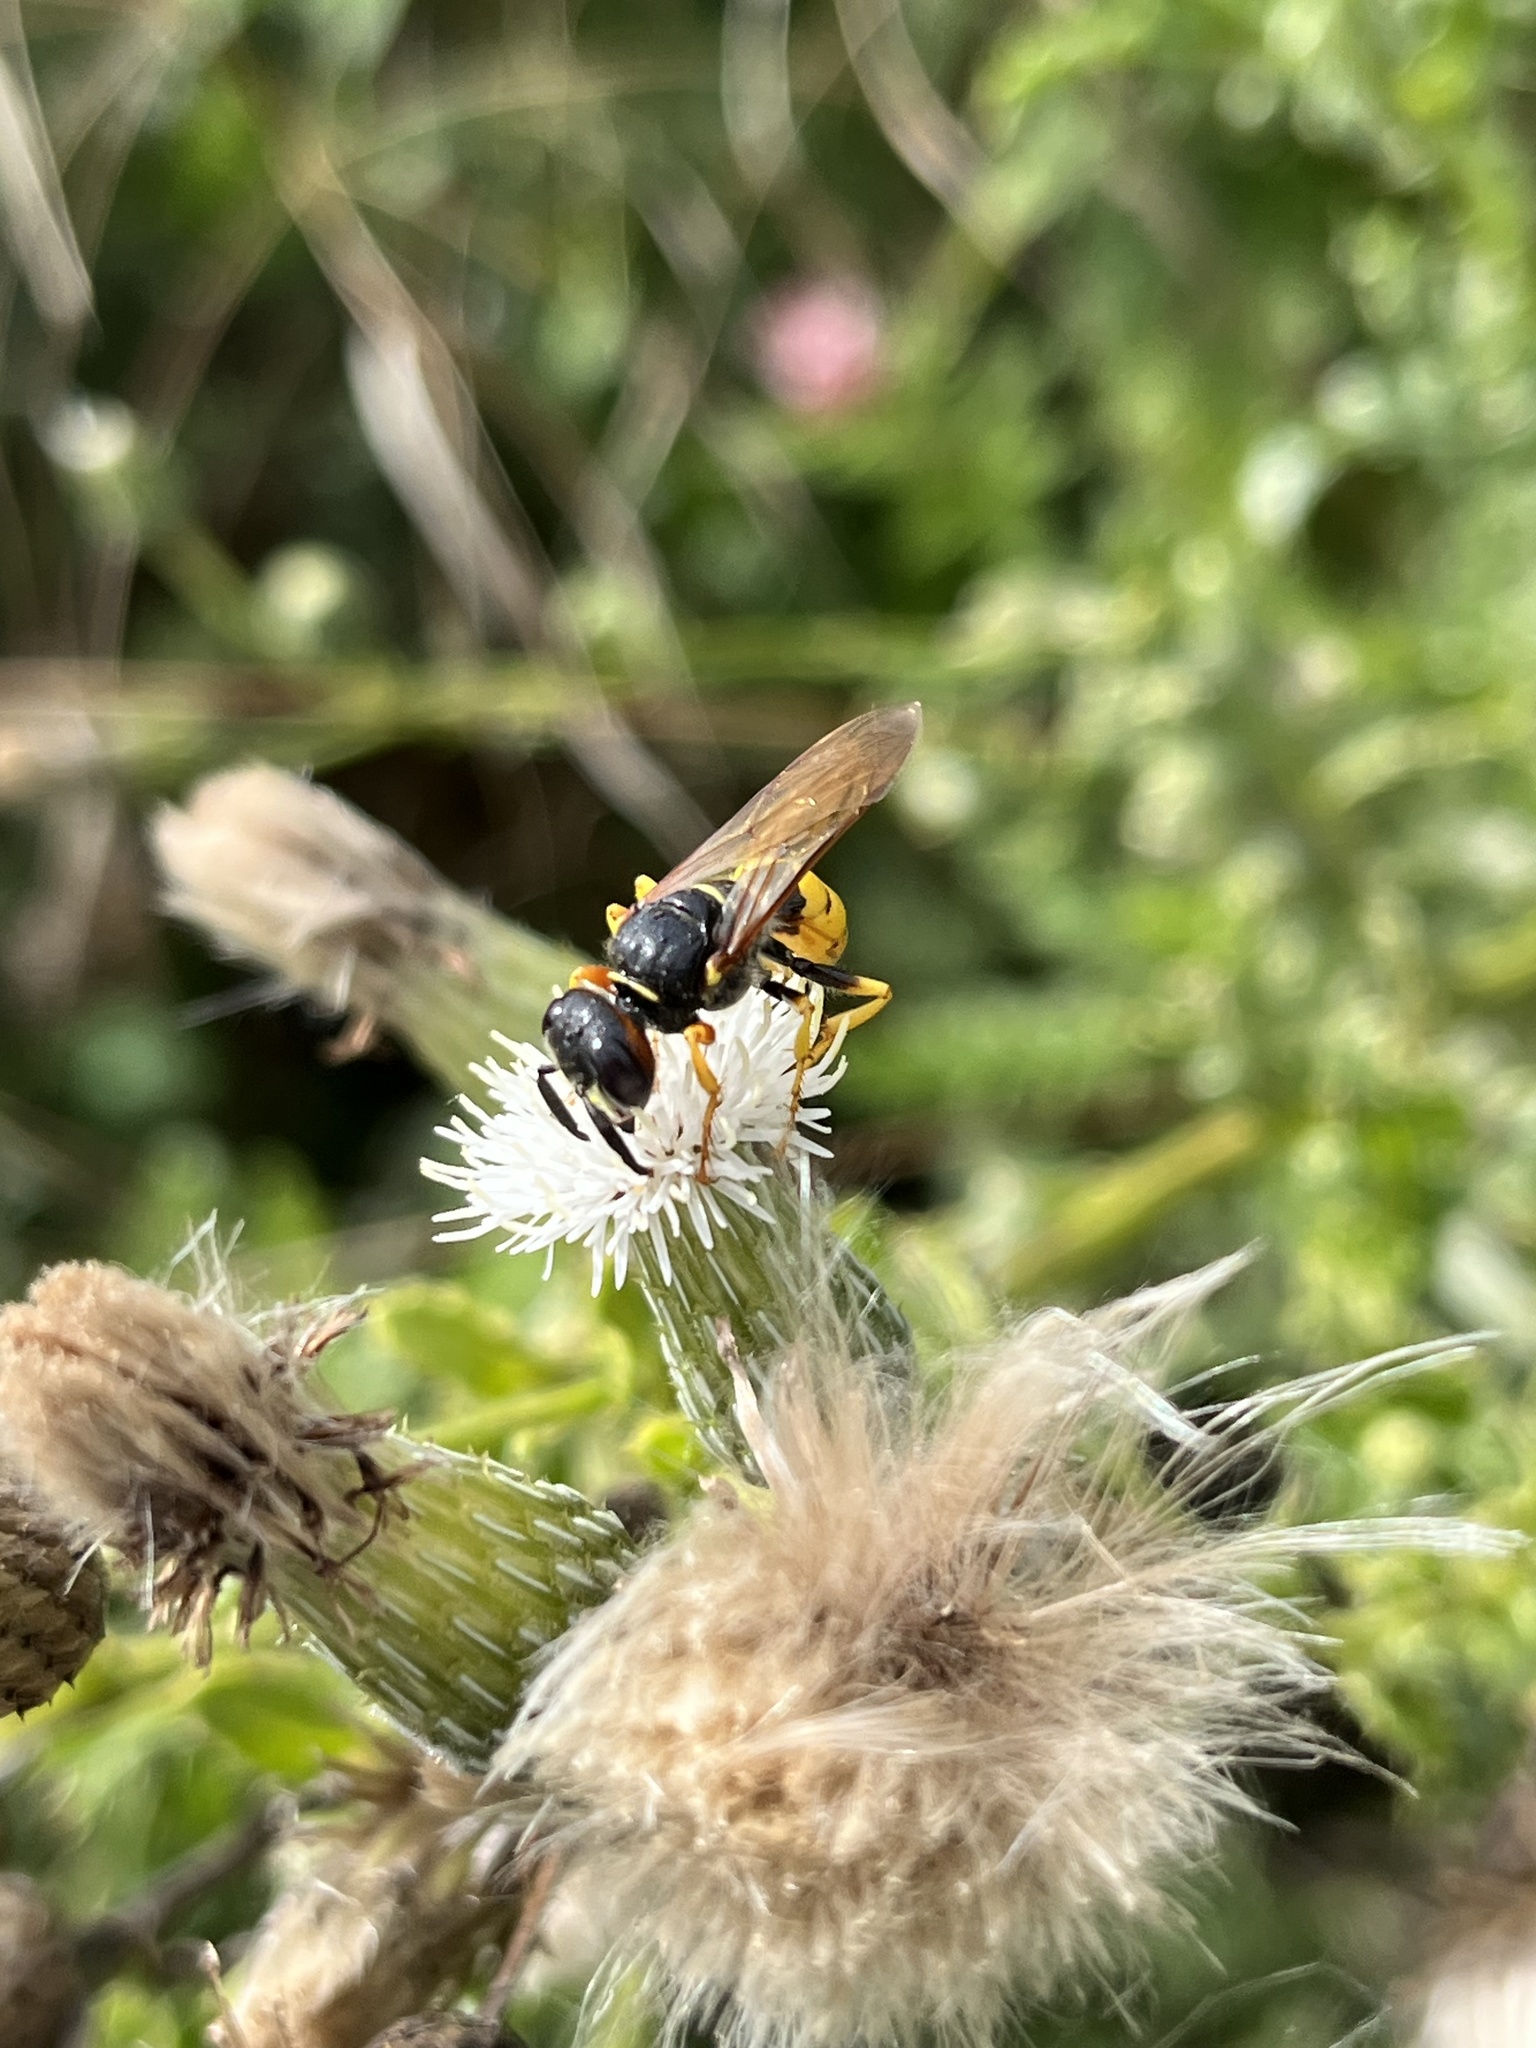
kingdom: Animalia
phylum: Arthropoda
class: Insecta
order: Hymenoptera
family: Crabronidae
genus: Philanthus
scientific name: Philanthus triangulum
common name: Bee wolf
